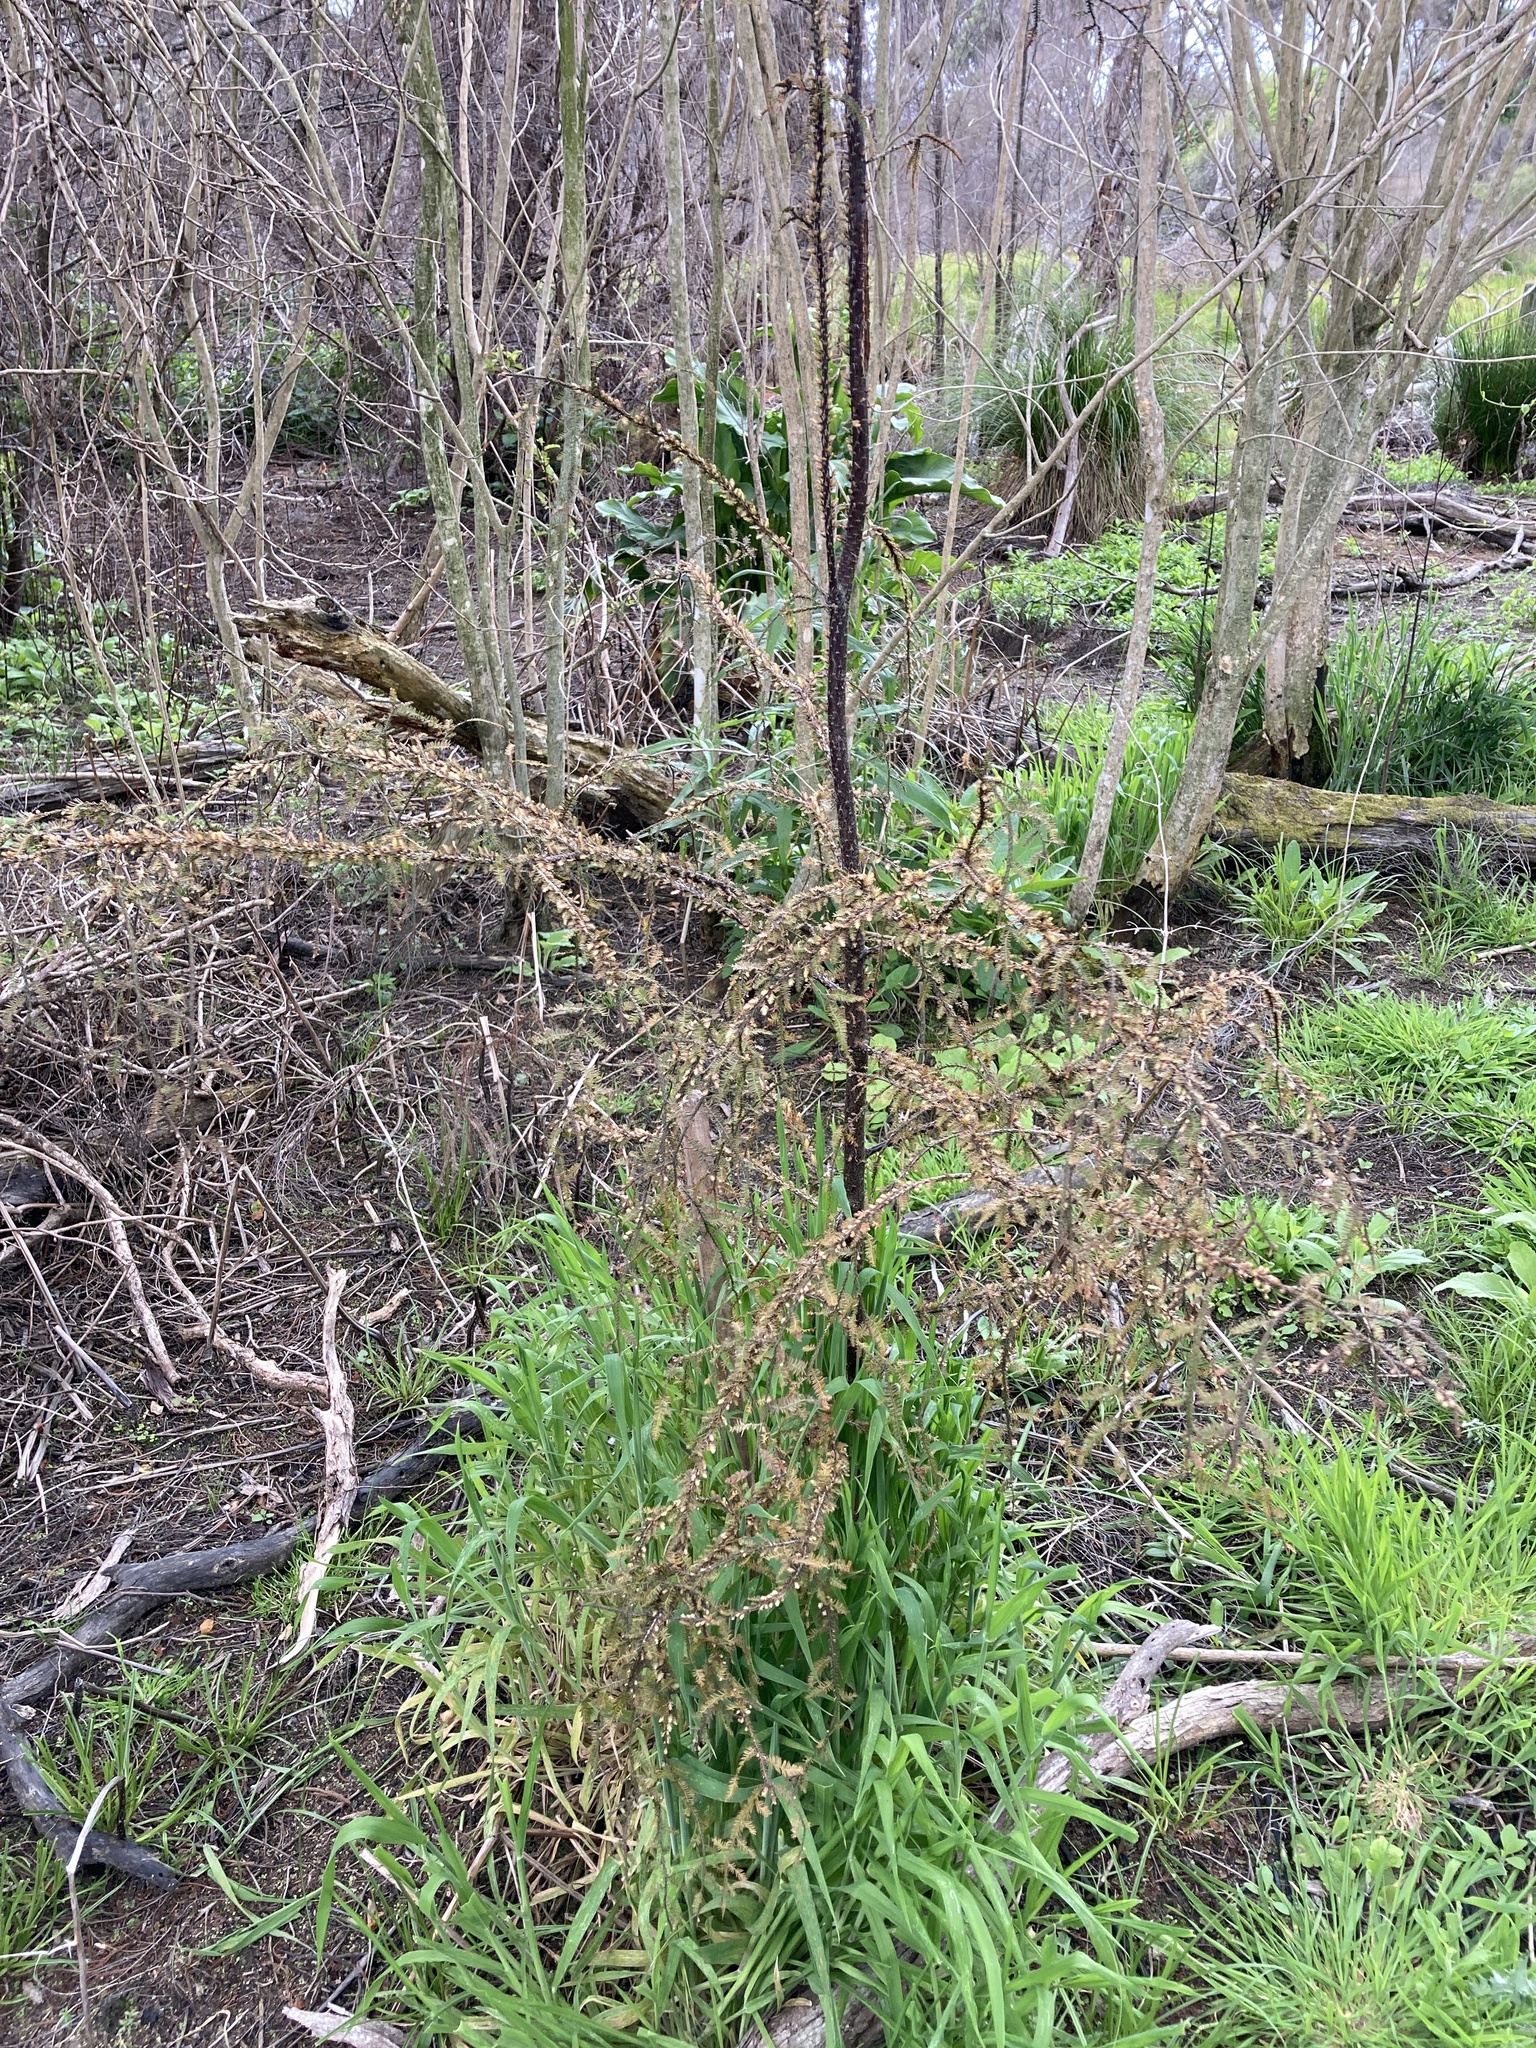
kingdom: Plantae
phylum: Tracheophyta
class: Pinopsida
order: Pinales
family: Podocarpaceae
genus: Dacrycarpus
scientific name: Dacrycarpus dacrydioides
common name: White pine
